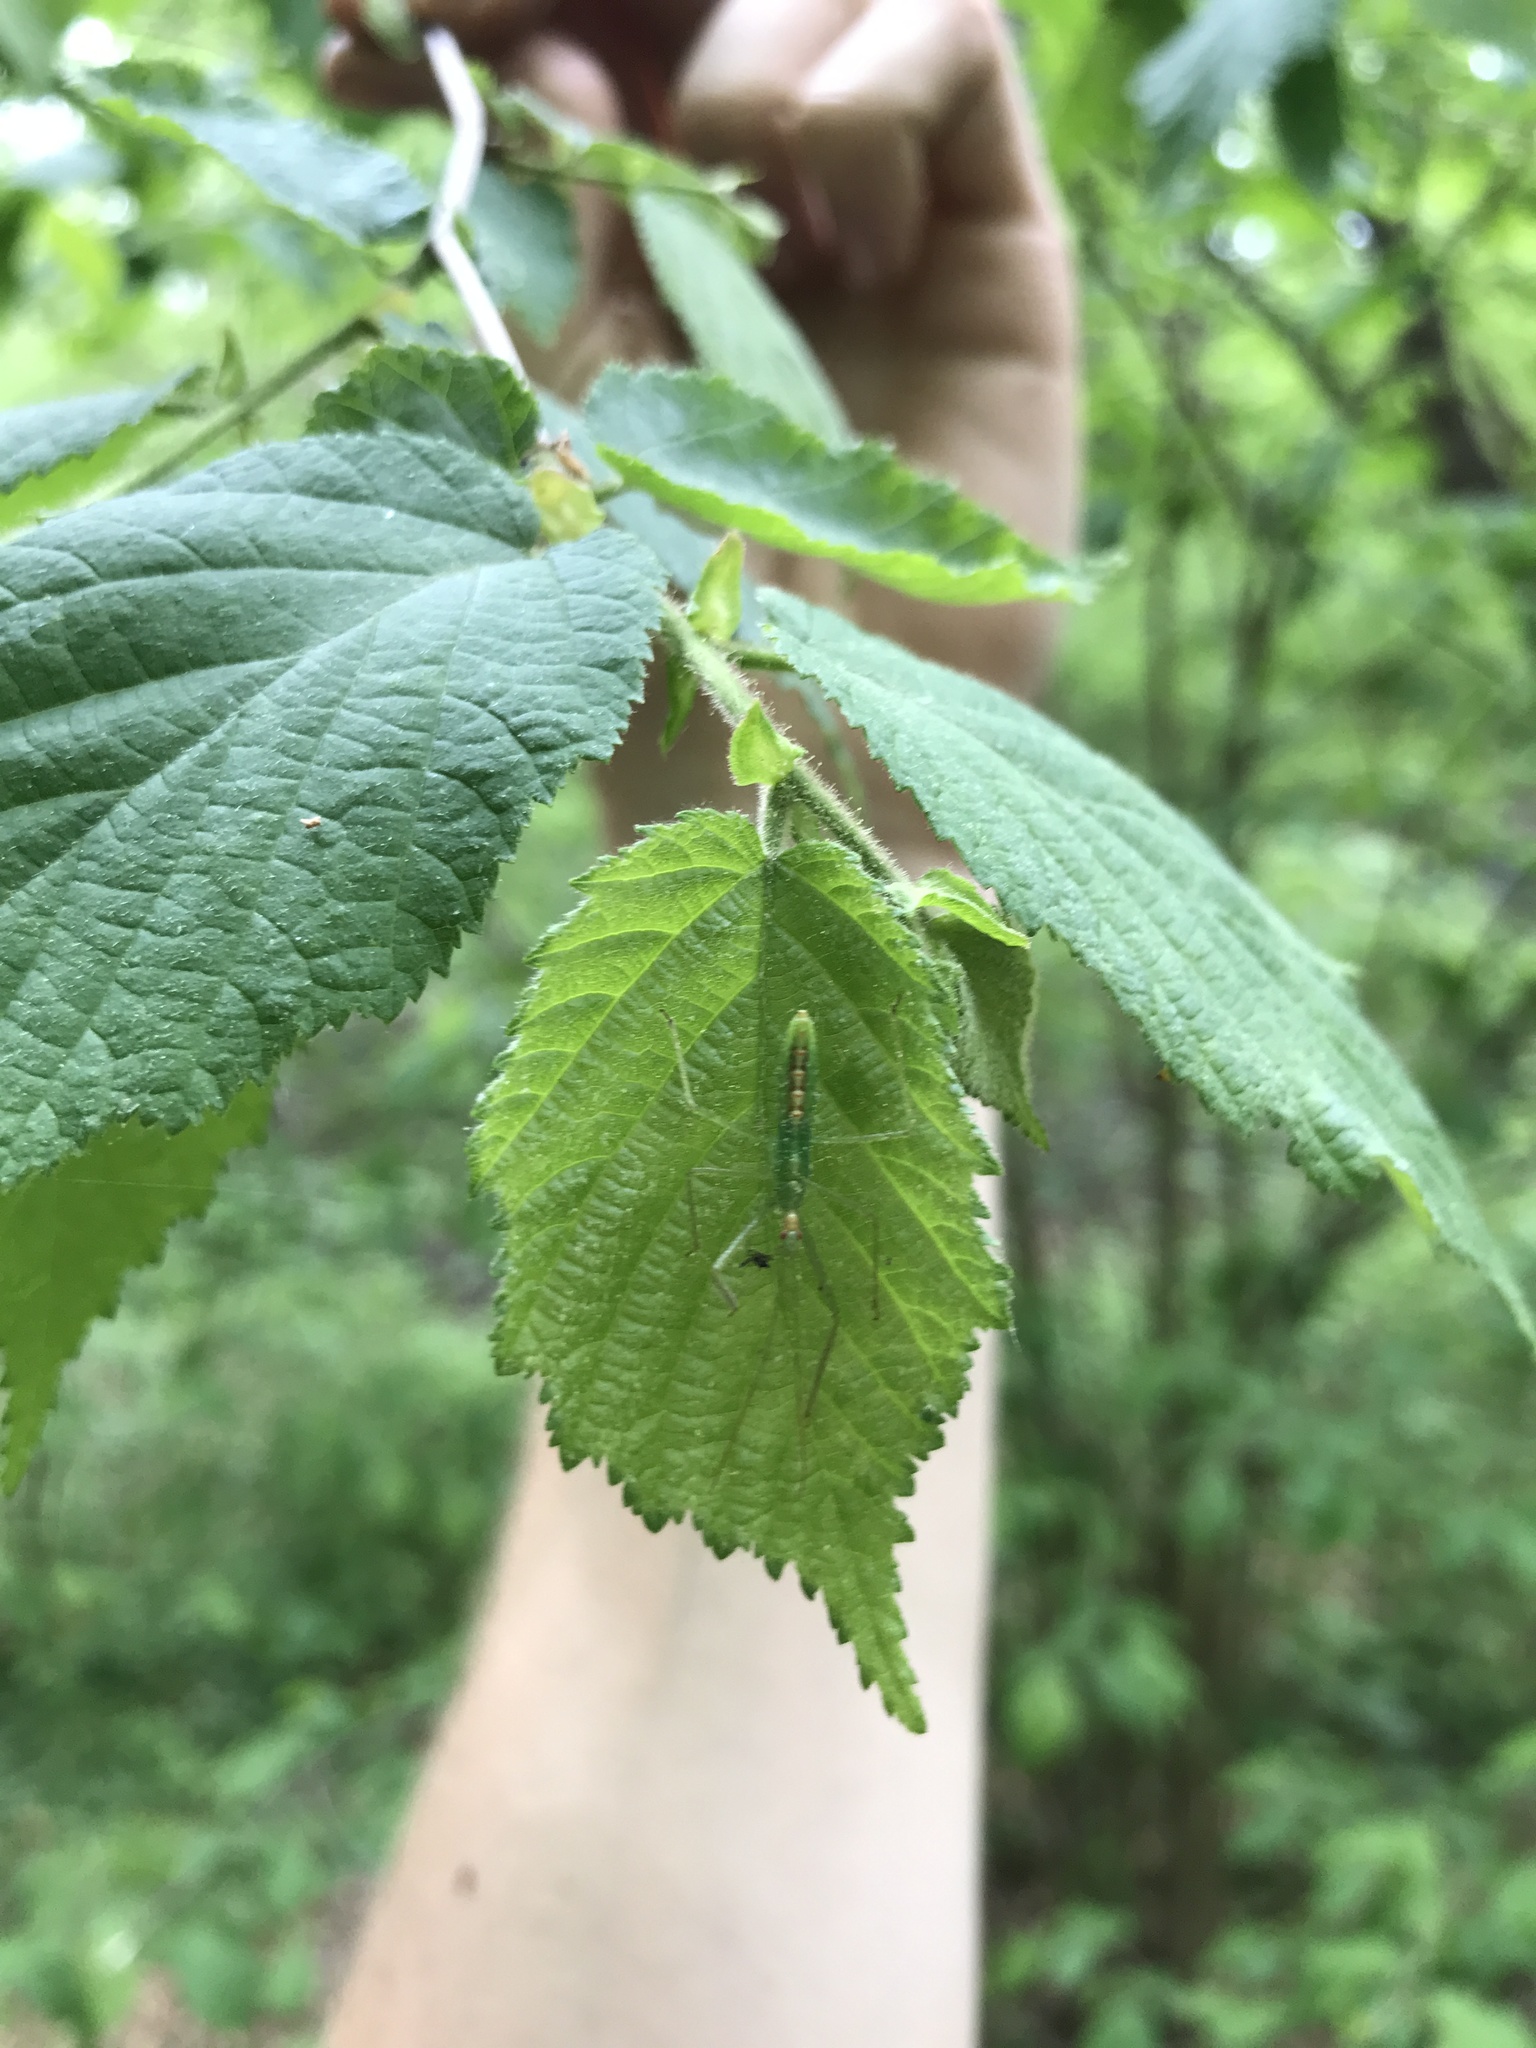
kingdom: Animalia
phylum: Arthropoda
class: Insecta
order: Hemiptera
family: Reduviidae
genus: Zelus
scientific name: Zelus luridus
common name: Pale green assassin bug
